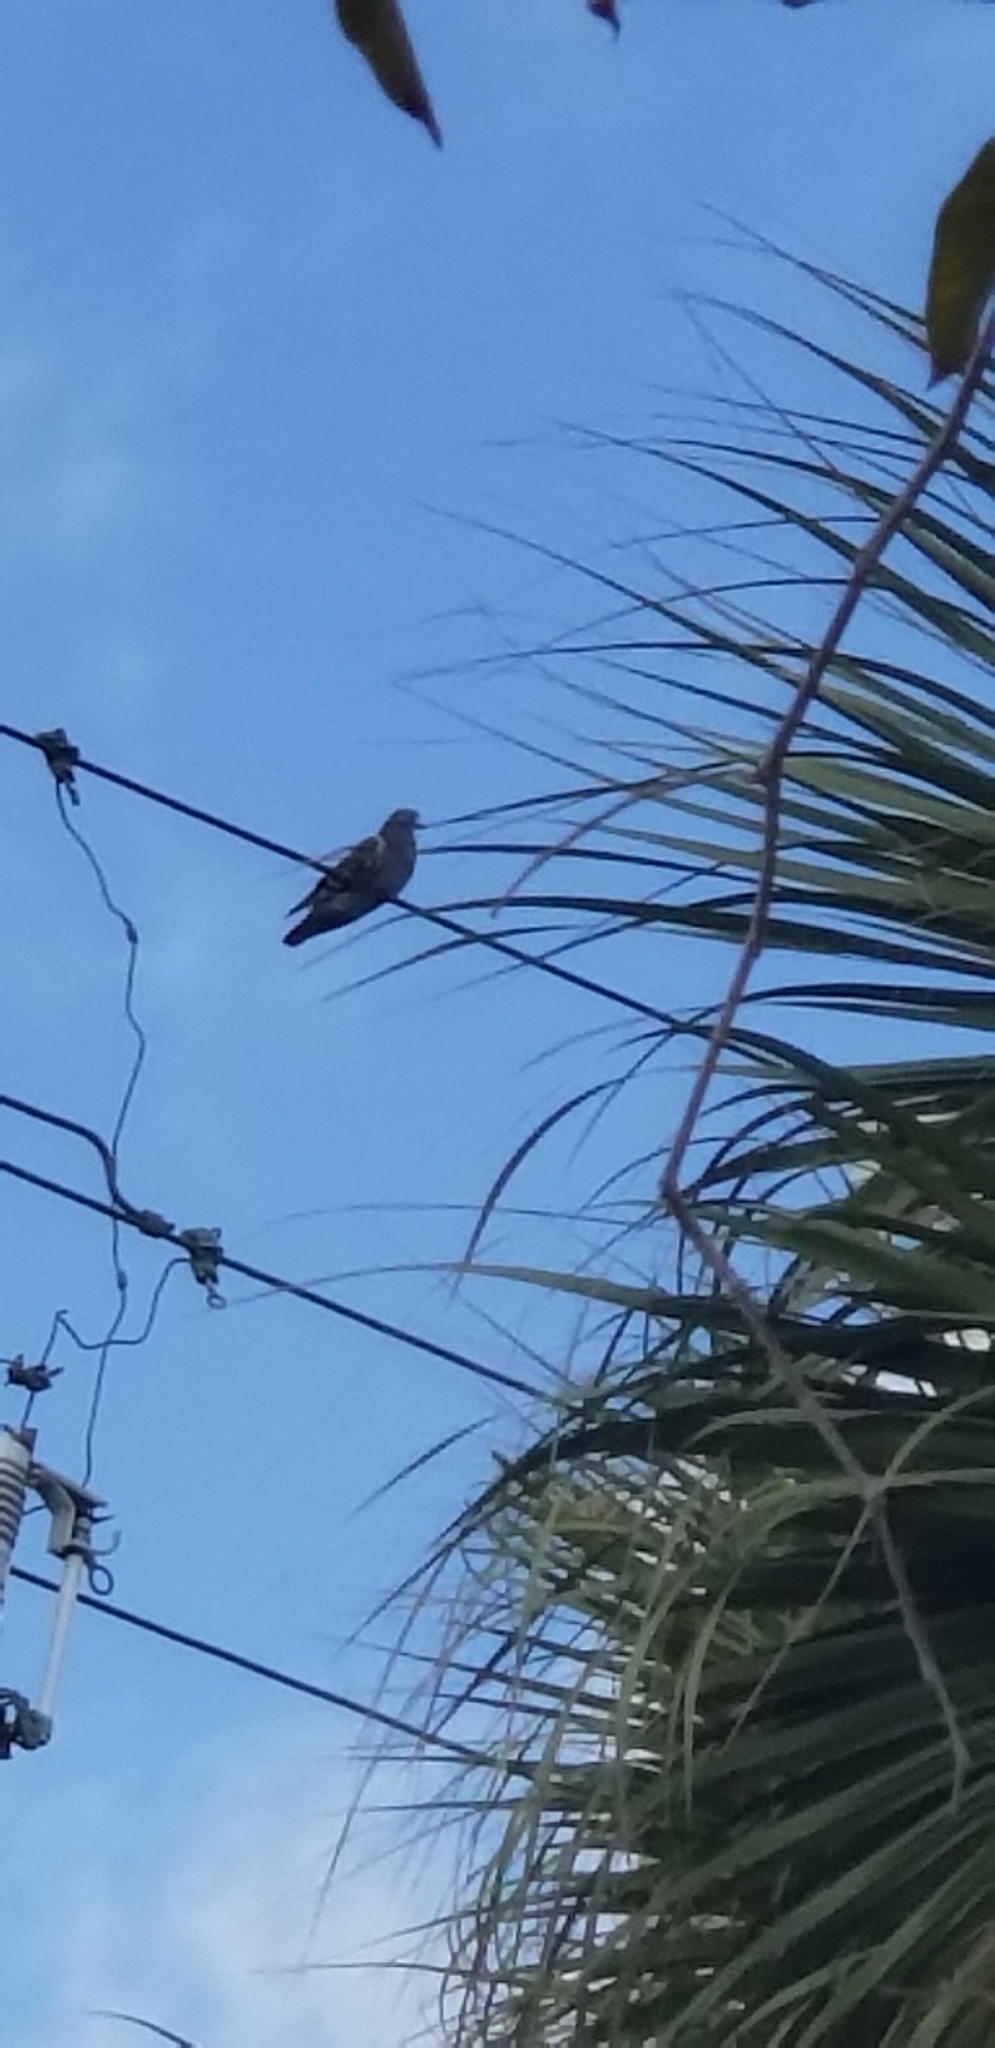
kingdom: Animalia
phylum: Chordata
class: Aves
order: Columbiformes
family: Columbidae
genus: Columba
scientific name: Columba livia
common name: Rock pigeon
